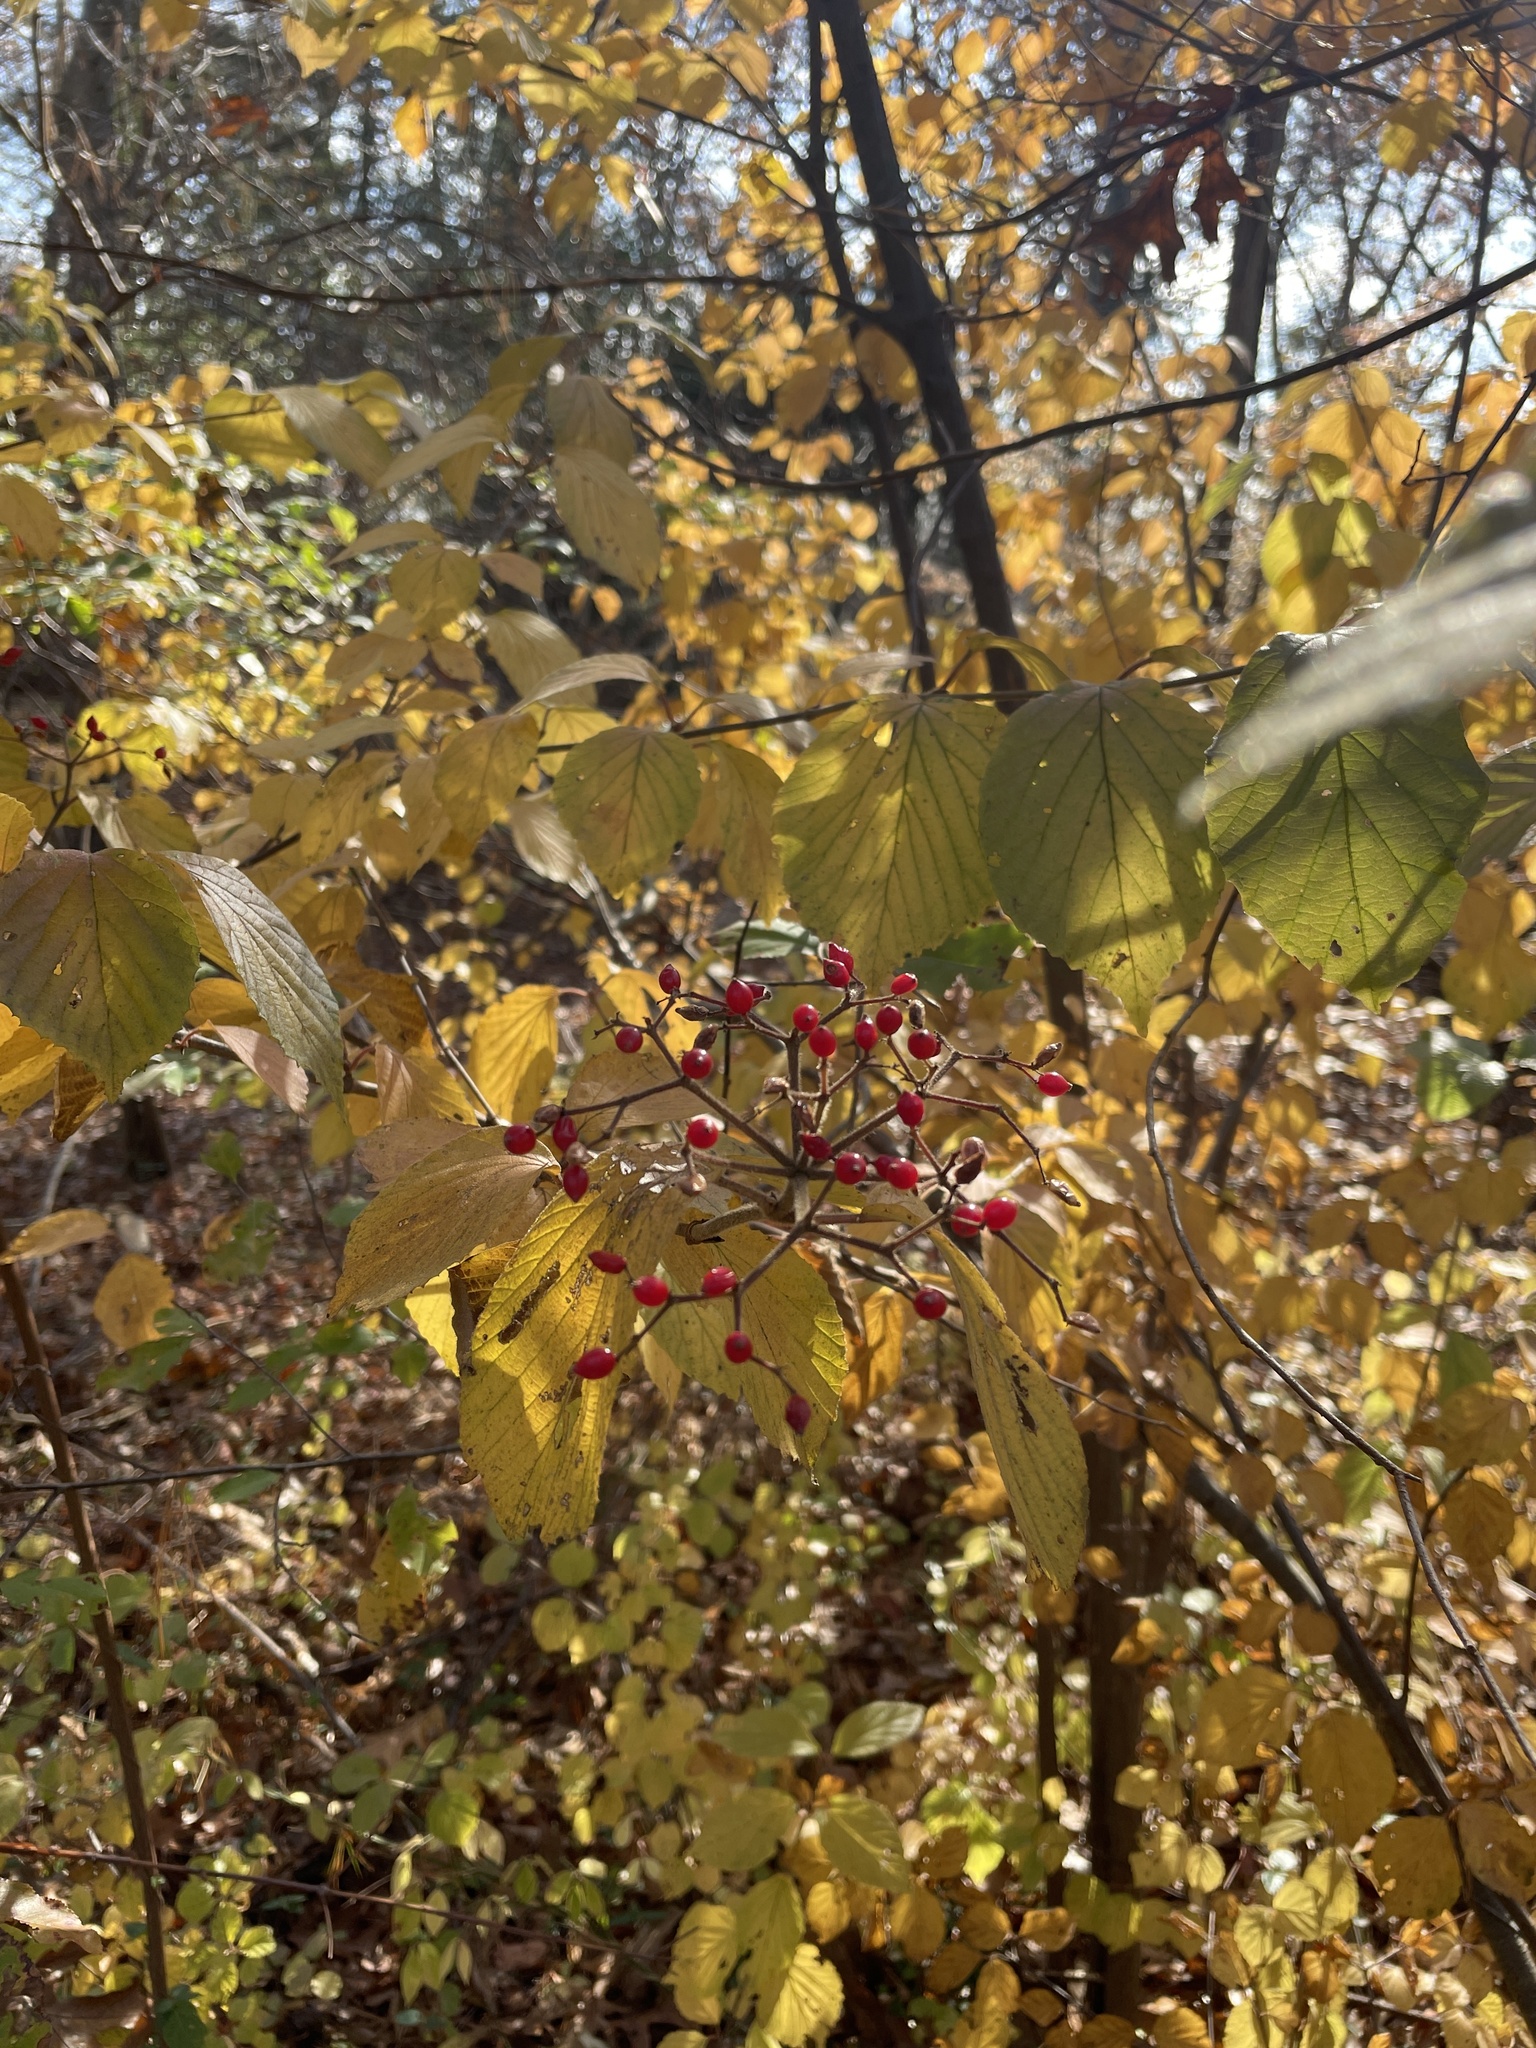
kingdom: Plantae
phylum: Tracheophyta
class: Magnoliopsida
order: Dipsacales
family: Viburnaceae
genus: Viburnum
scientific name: Viburnum dilatatum
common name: Linden arrowwood
